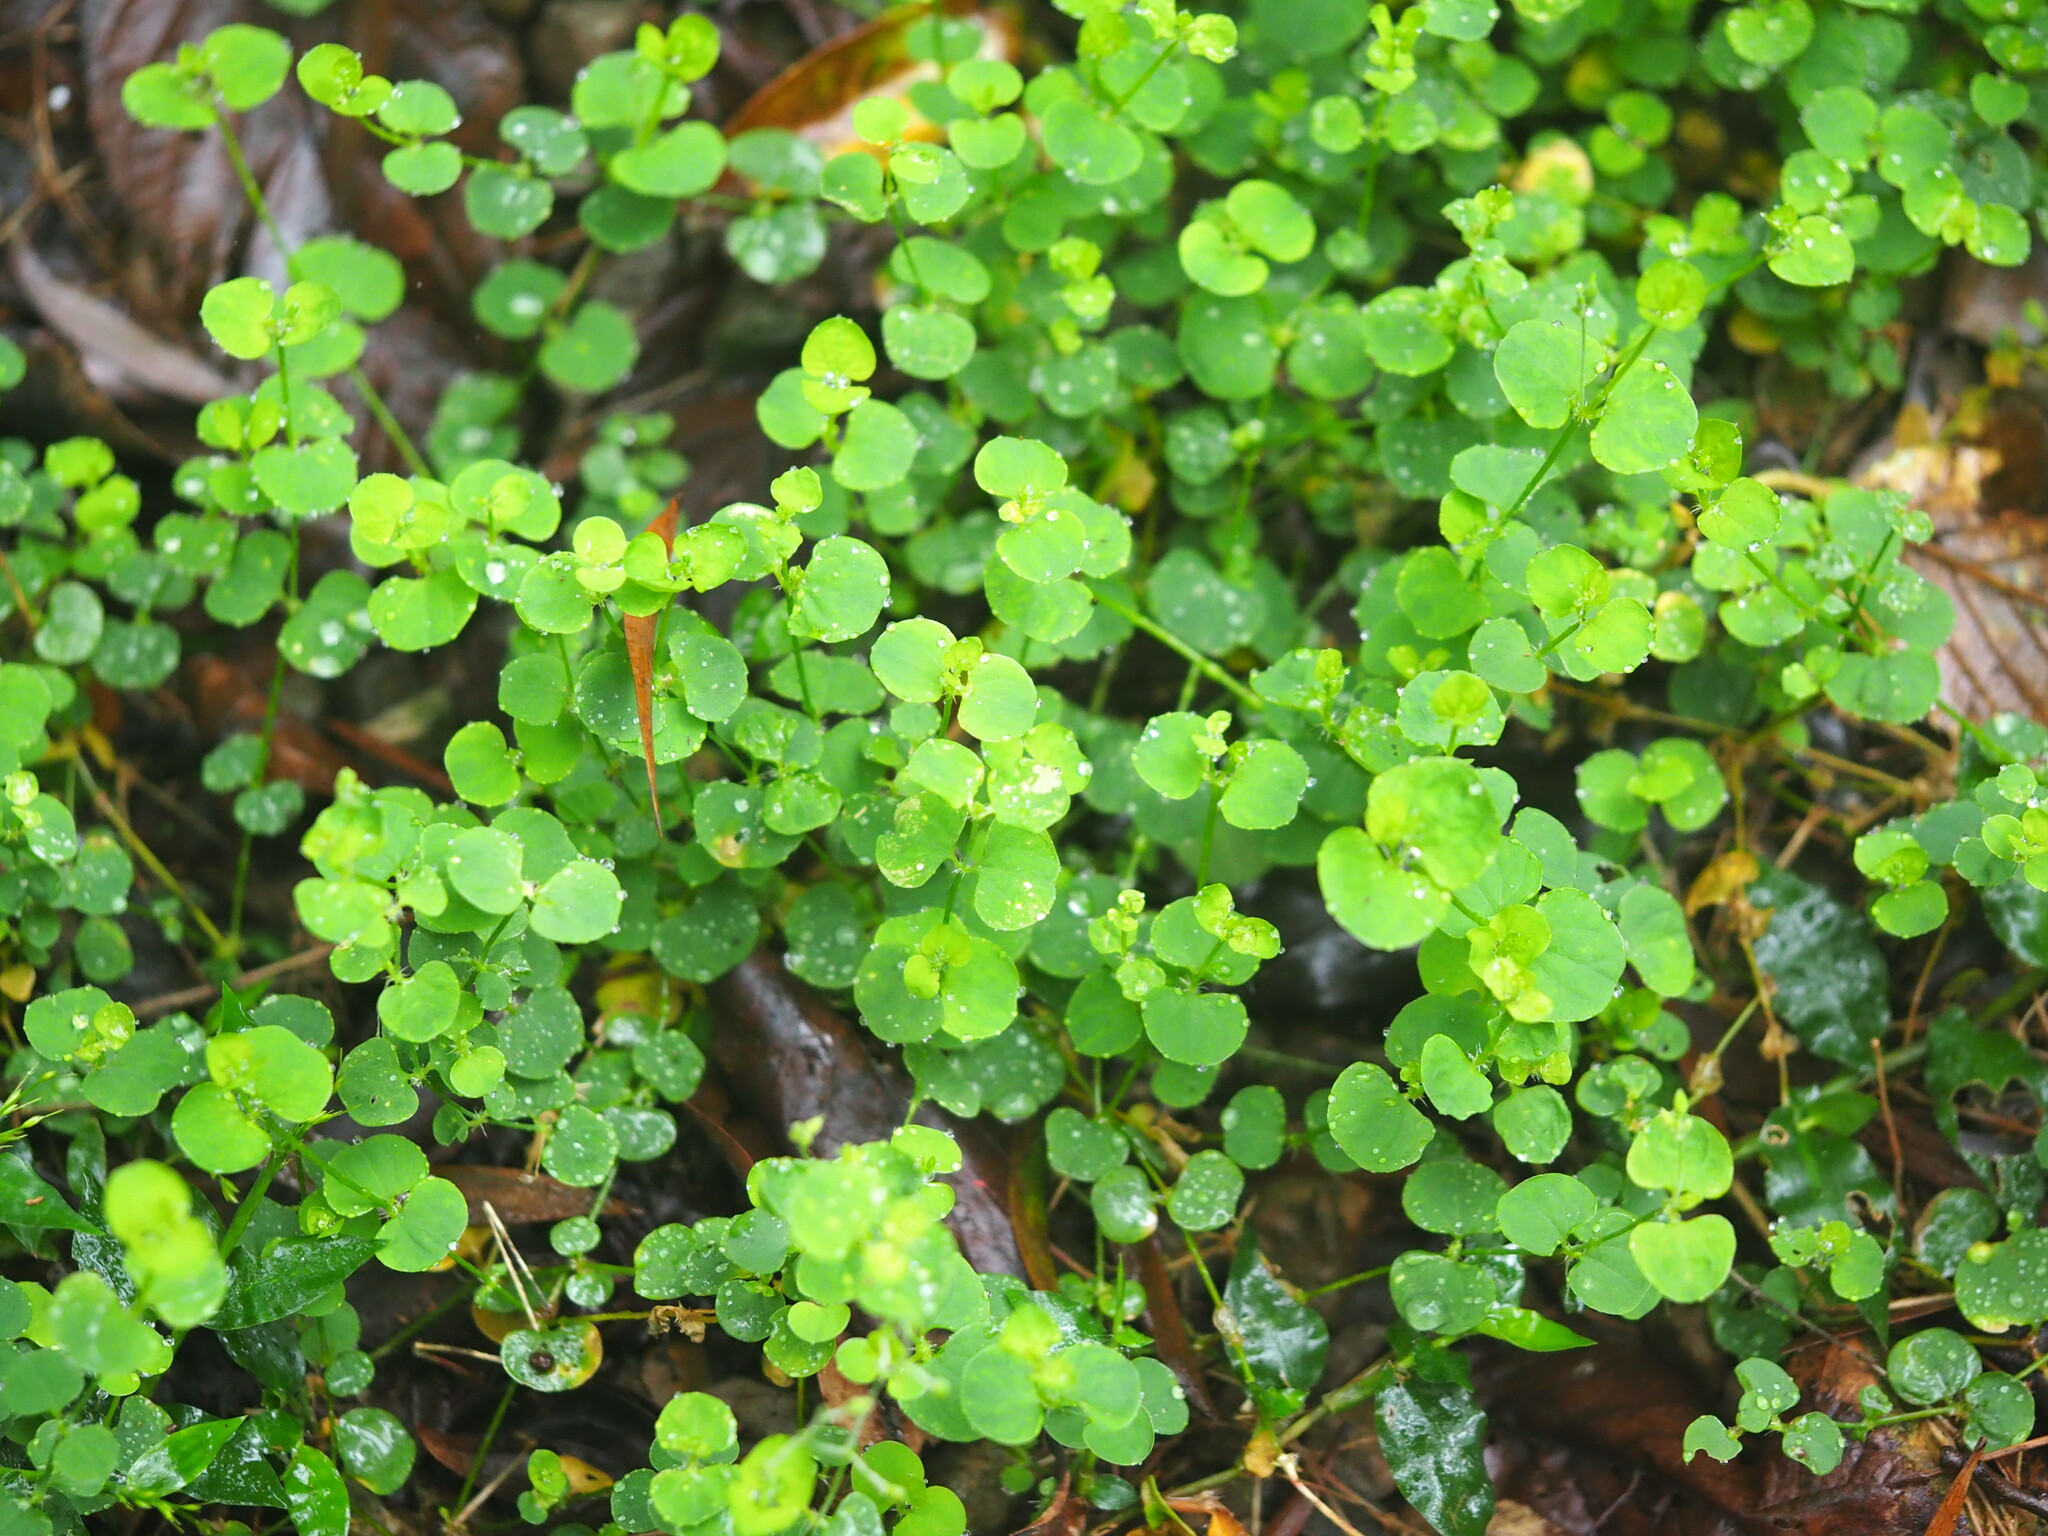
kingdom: Plantae
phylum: Tracheophyta
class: Magnoliopsida
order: Caryophyllales
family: Caryophyllaceae
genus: Drymaria
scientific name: Drymaria cordata
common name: Whitesnow
